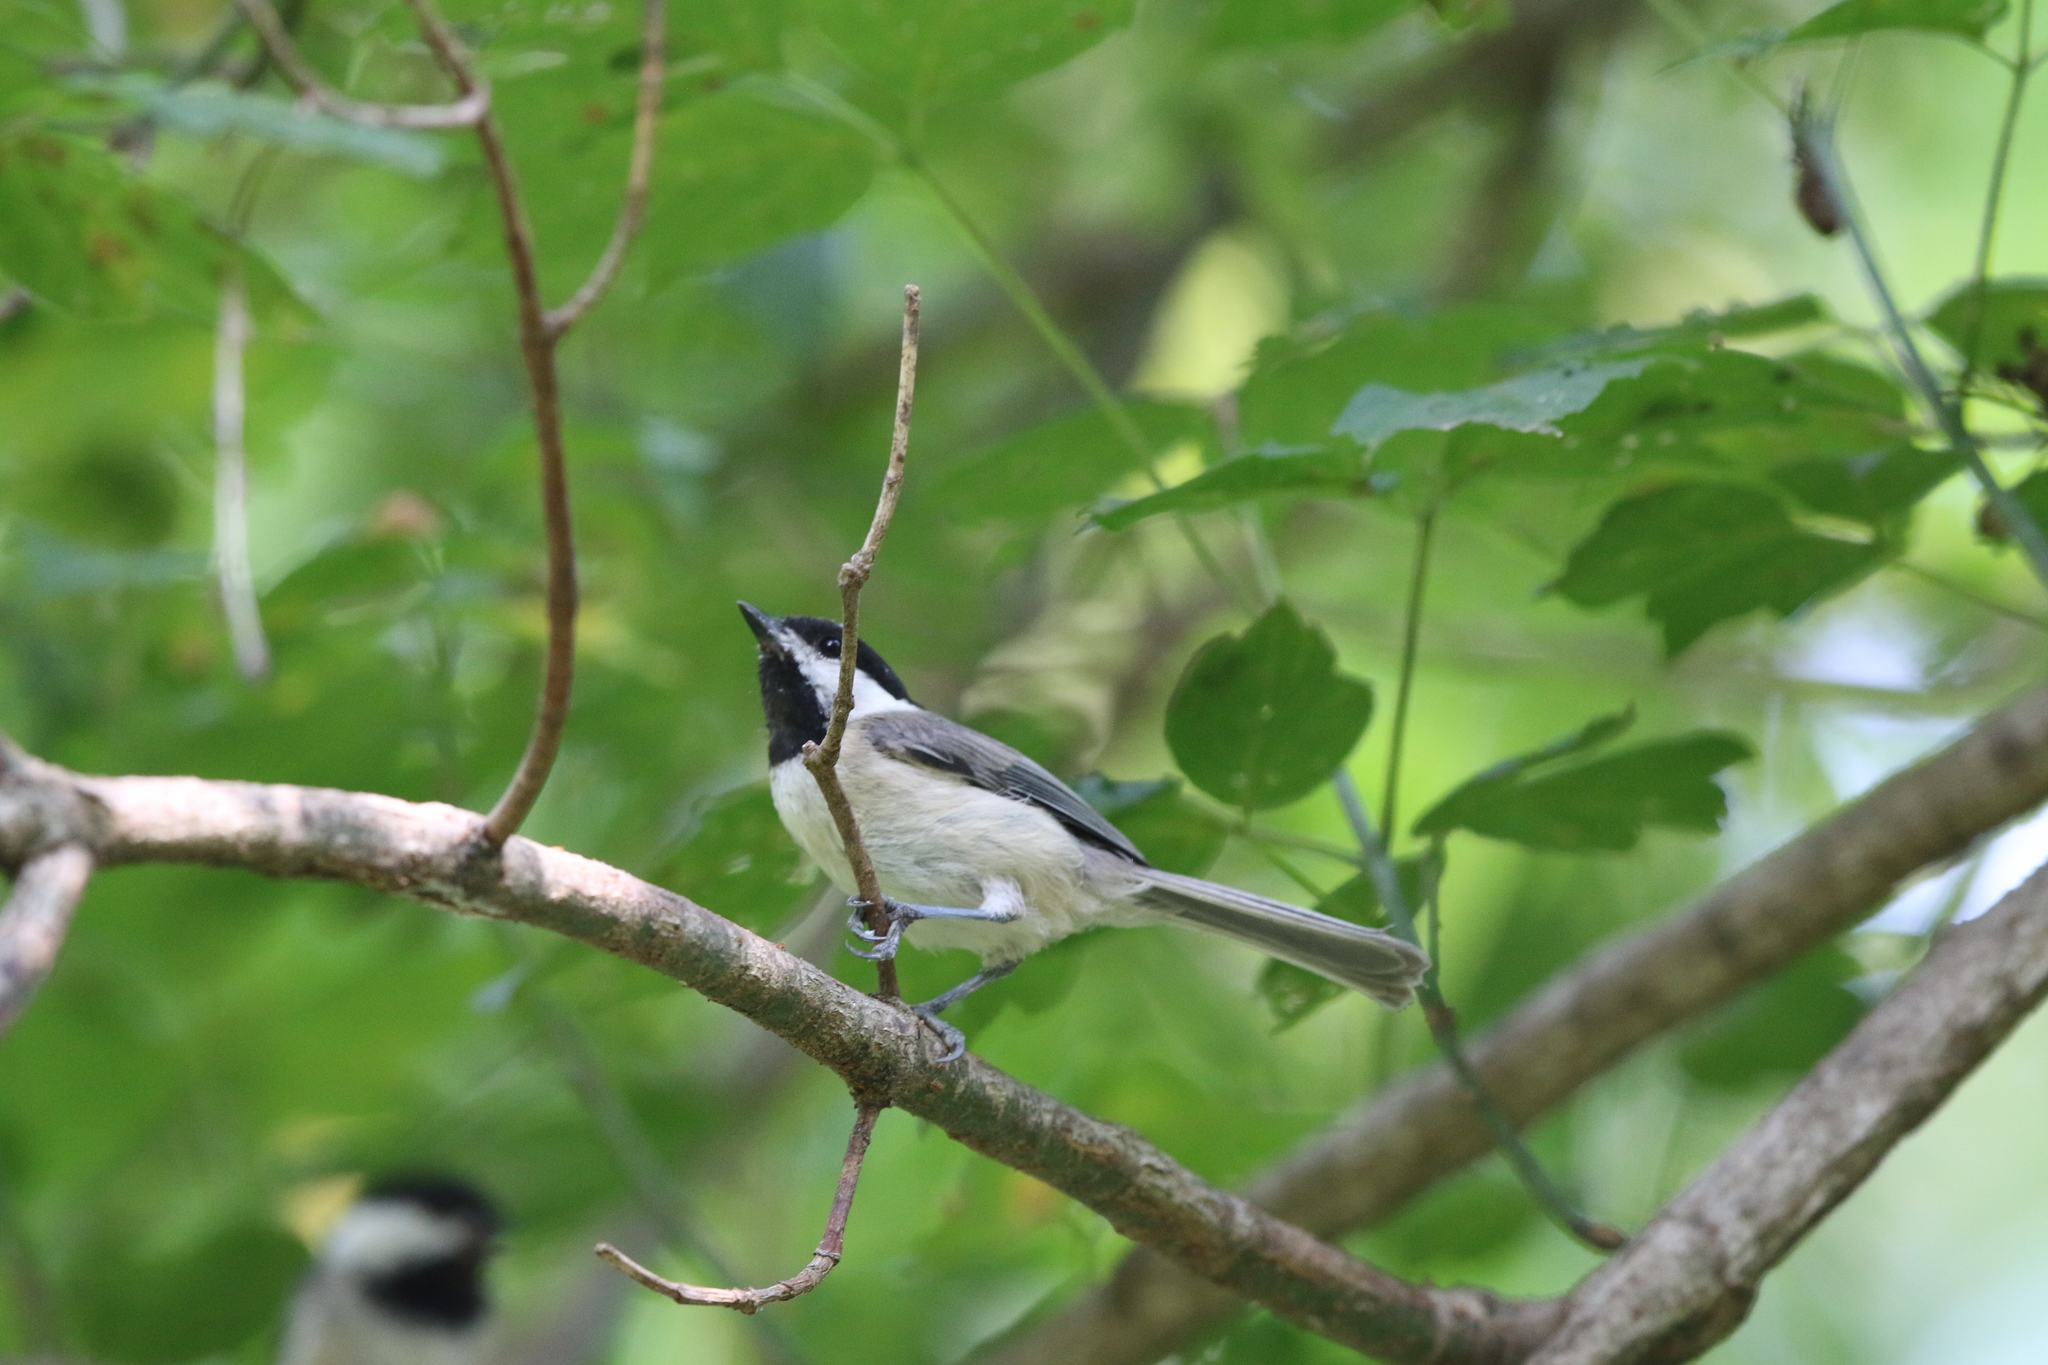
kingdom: Animalia
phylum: Chordata
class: Aves
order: Passeriformes
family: Paridae
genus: Poecile
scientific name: Poecile carolinensis
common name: Carolina chickadee
